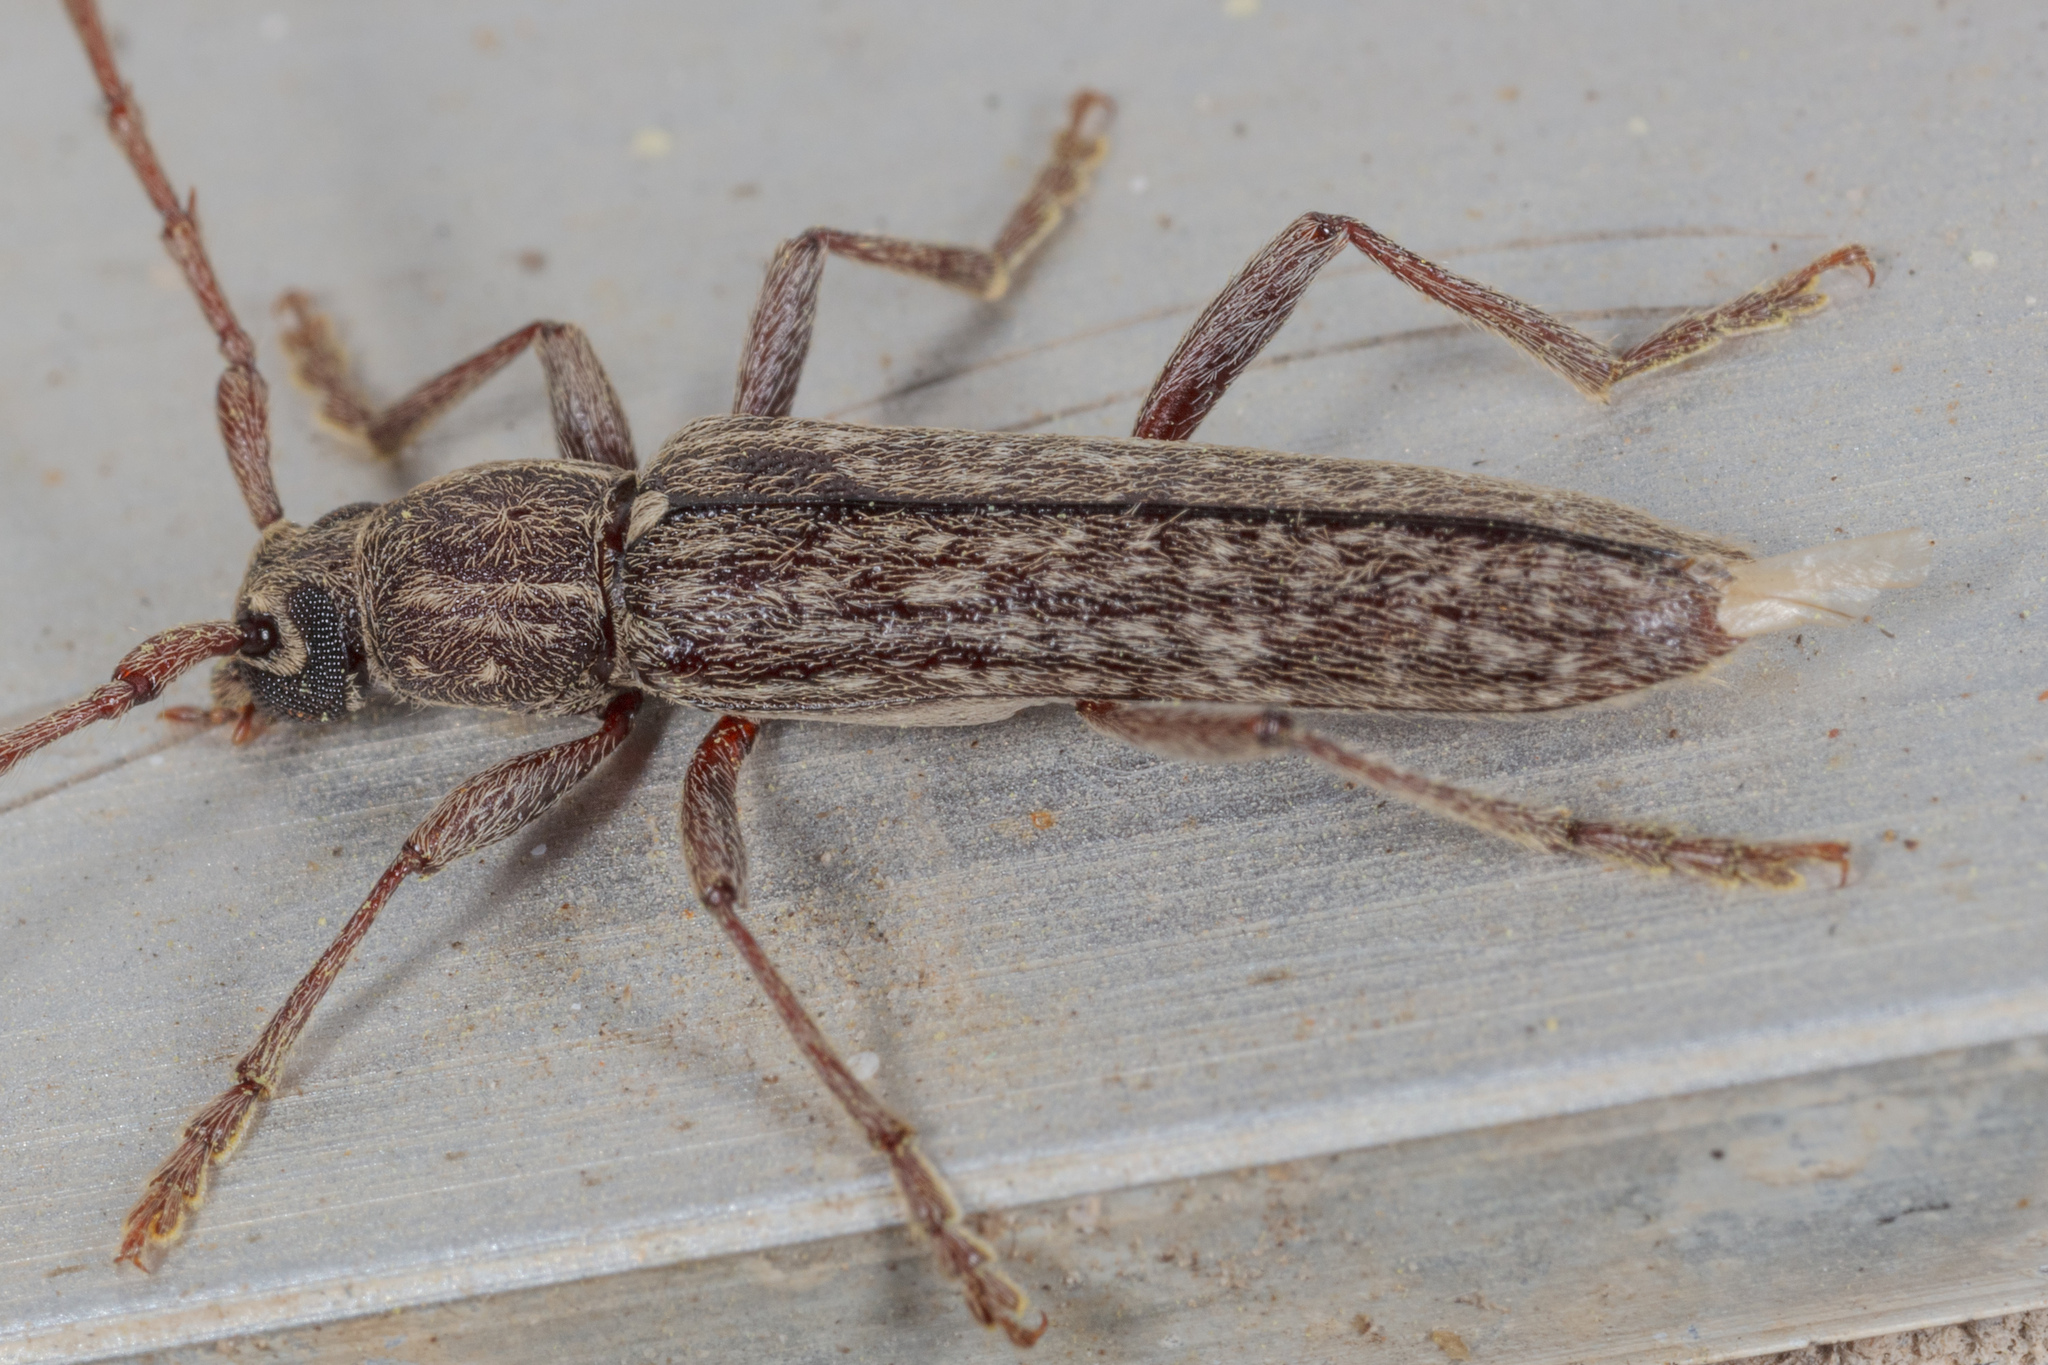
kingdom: Animalia
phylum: Arthropoda
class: Insecta
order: Coleoptera
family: Cerambycidae
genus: Anelaphus
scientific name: Anelaphus villosus
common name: Twig pruner
